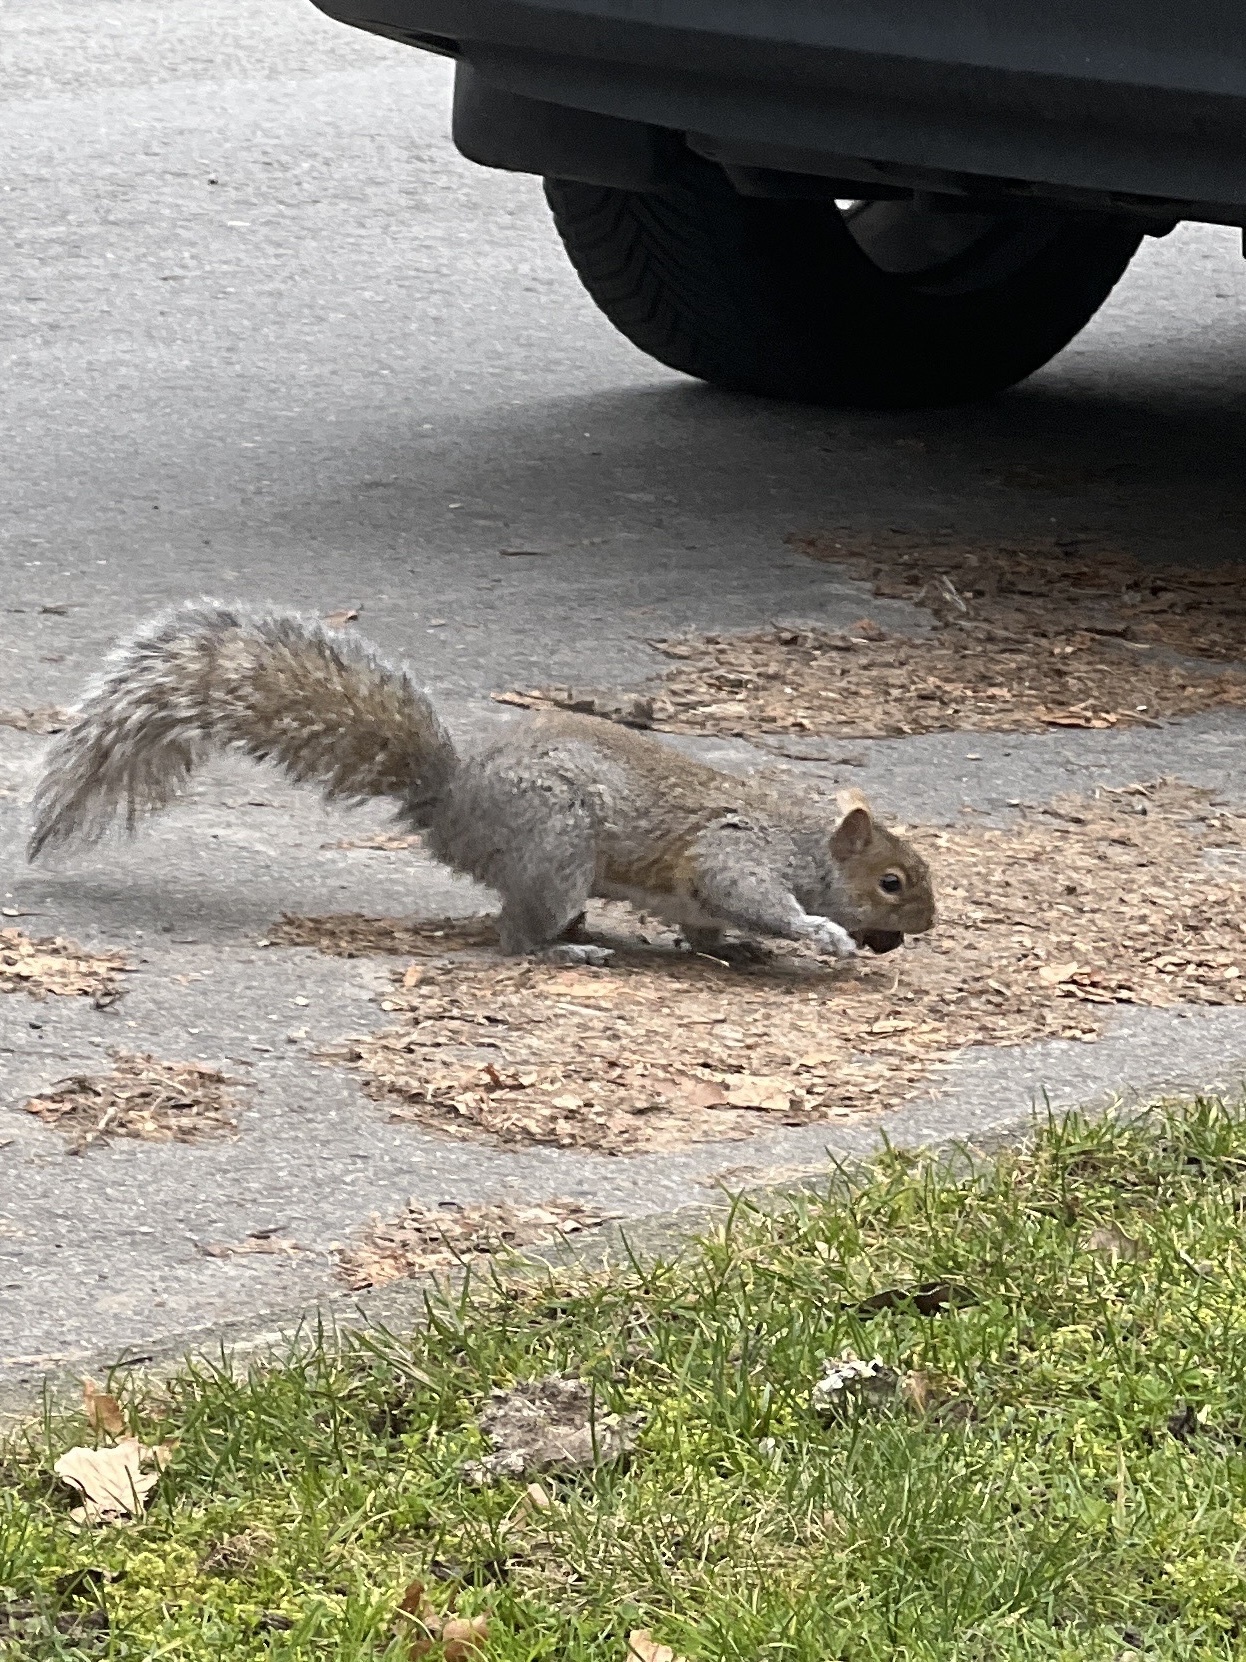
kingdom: Animalia
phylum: Chordata
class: Mammalia
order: Rodentia
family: Sciuridae
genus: Sciurus
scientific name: Sciurus carolinensis
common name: Eastern gray squirrel
